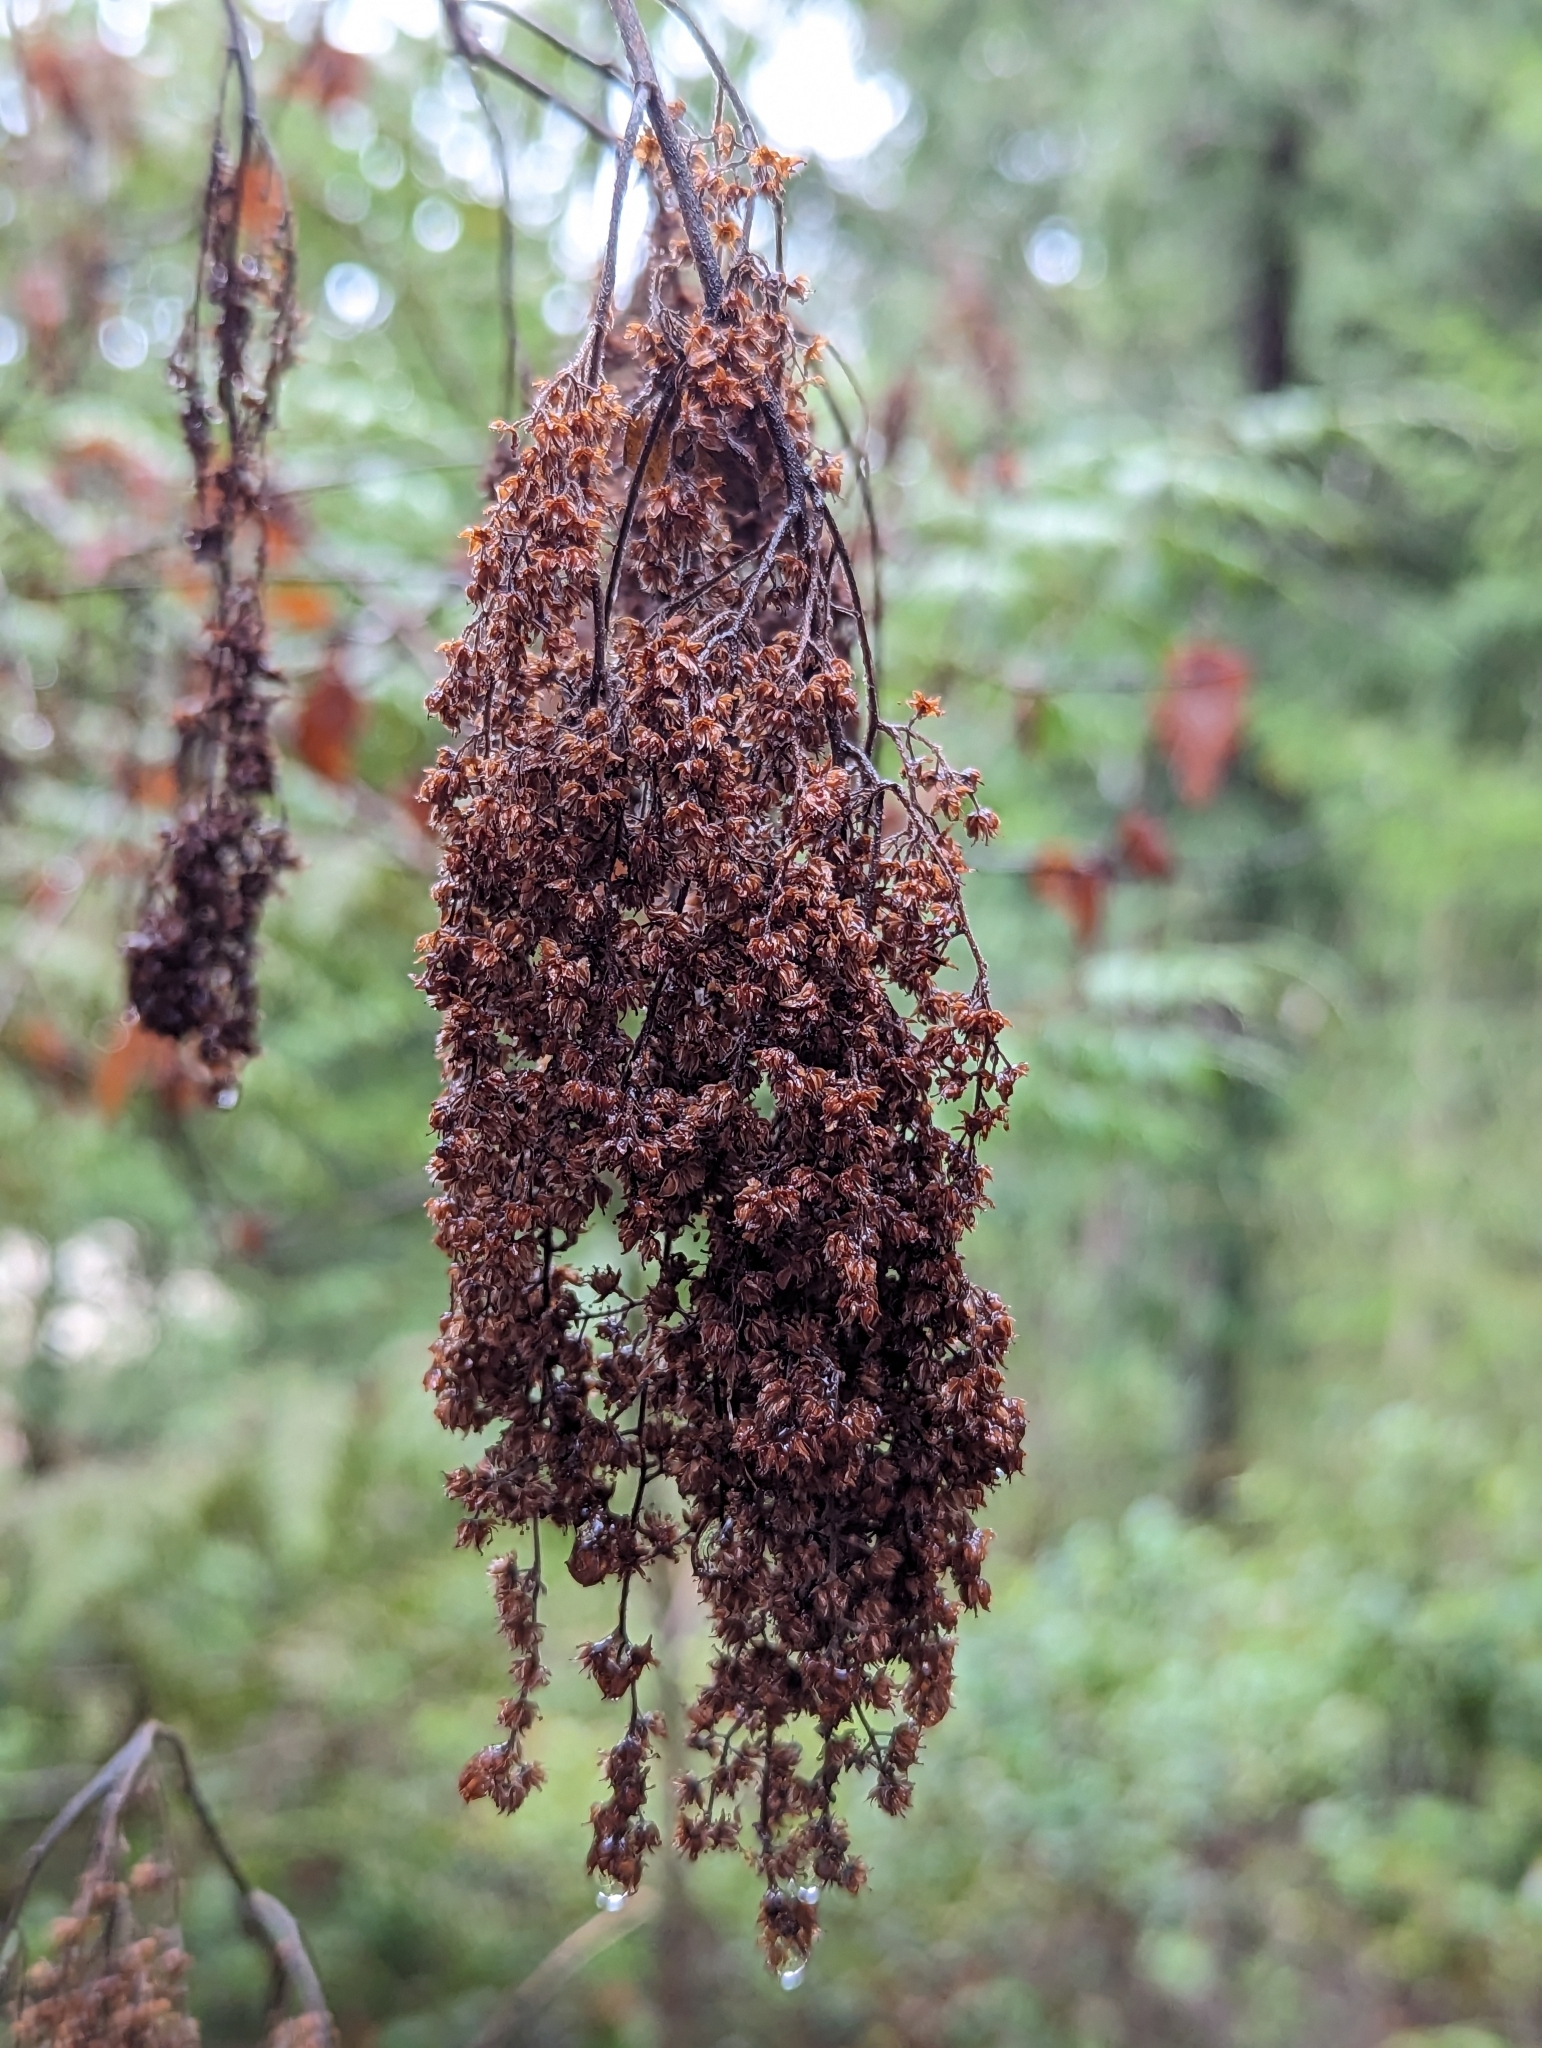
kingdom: Plantae
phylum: Tracheophyta
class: Magnoliopsida
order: Rosales
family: Rosaceae
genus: Holodiscus
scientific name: Holodiscus discolor
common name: Oceanspray
